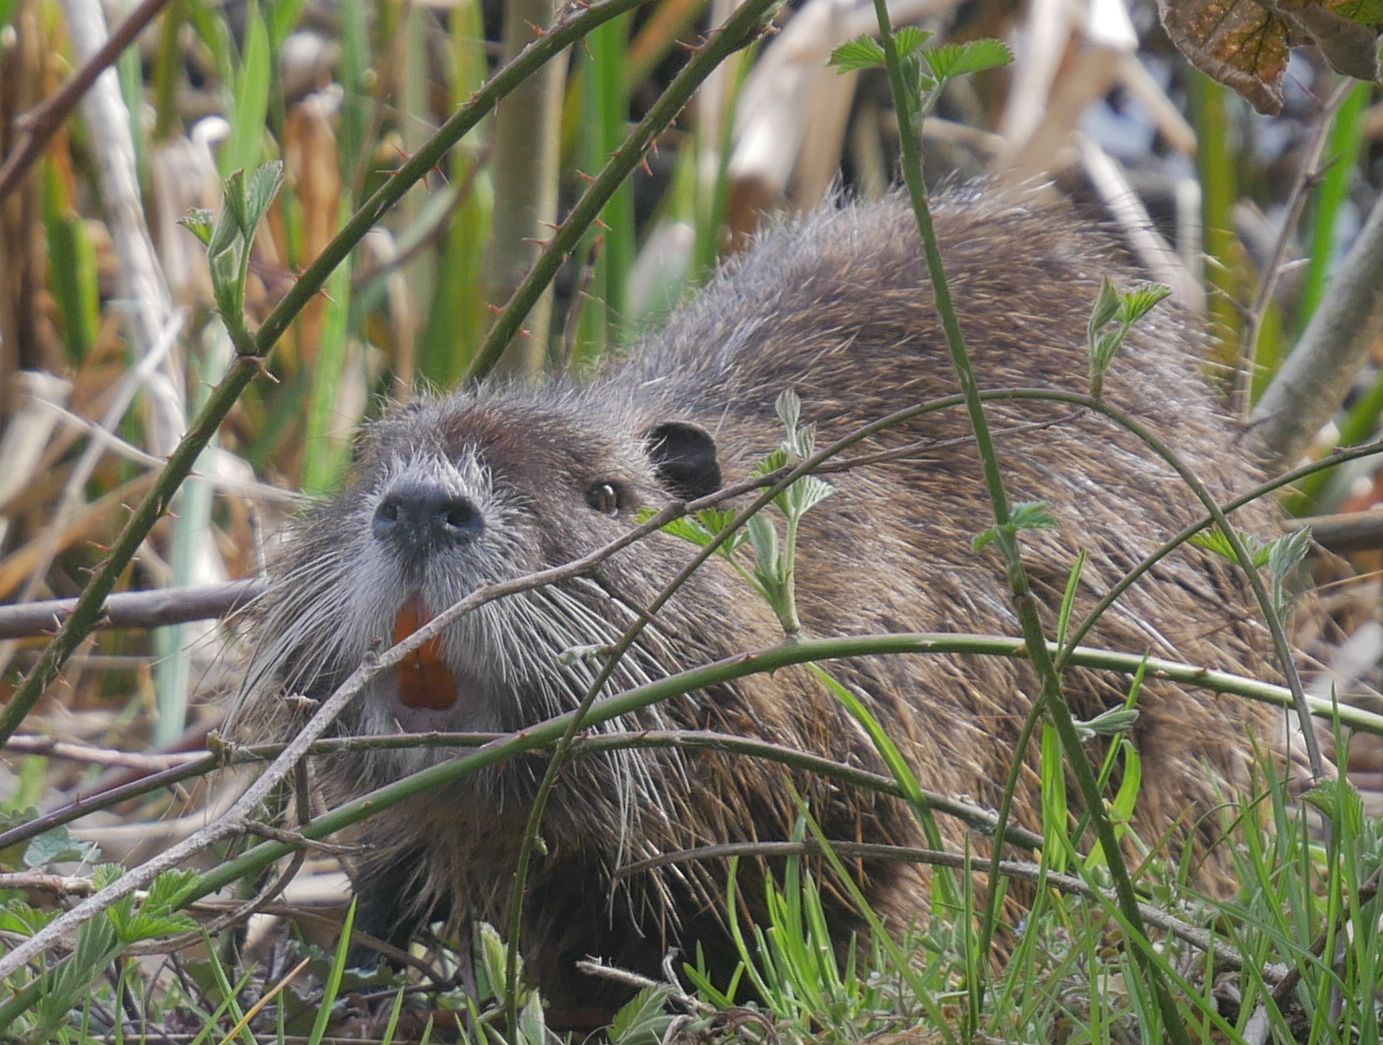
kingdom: Animalia
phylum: Chordata
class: Mammalia
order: Rodentia
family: Myocastoridae
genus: Myocastor
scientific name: Myocastor coypus
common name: Coypu
